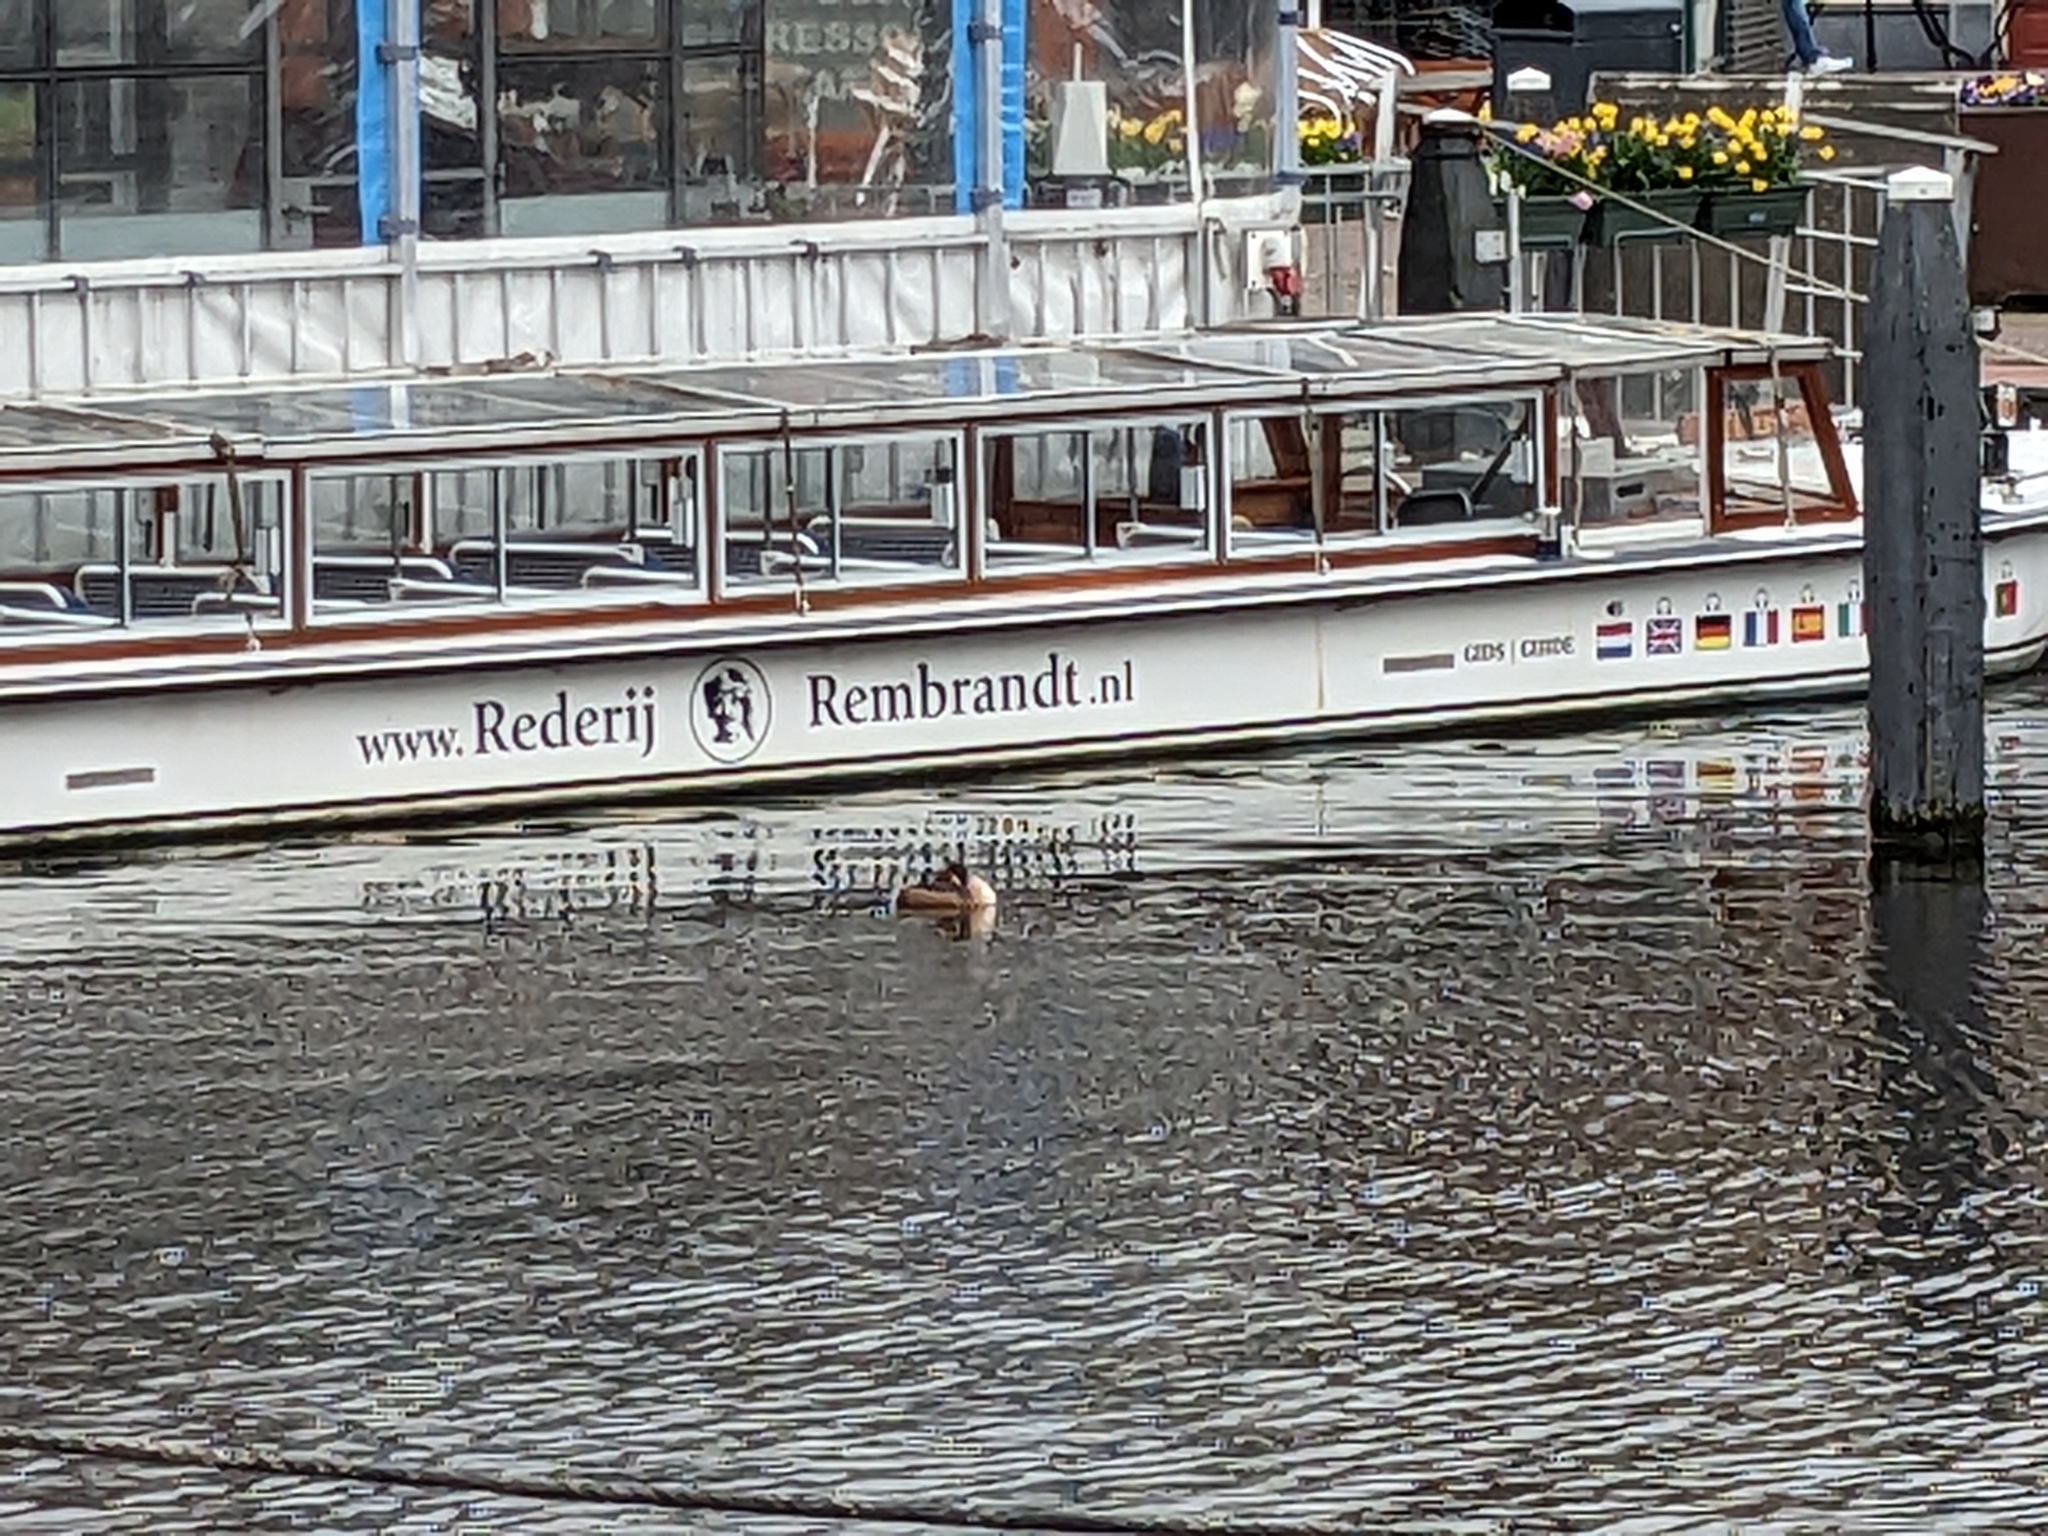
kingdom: Animalia
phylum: Chordata
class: Aves
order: Podicipediformes
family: Podicipedidae
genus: Podiceps
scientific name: Podiceps cristatus
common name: Great crested grebe
